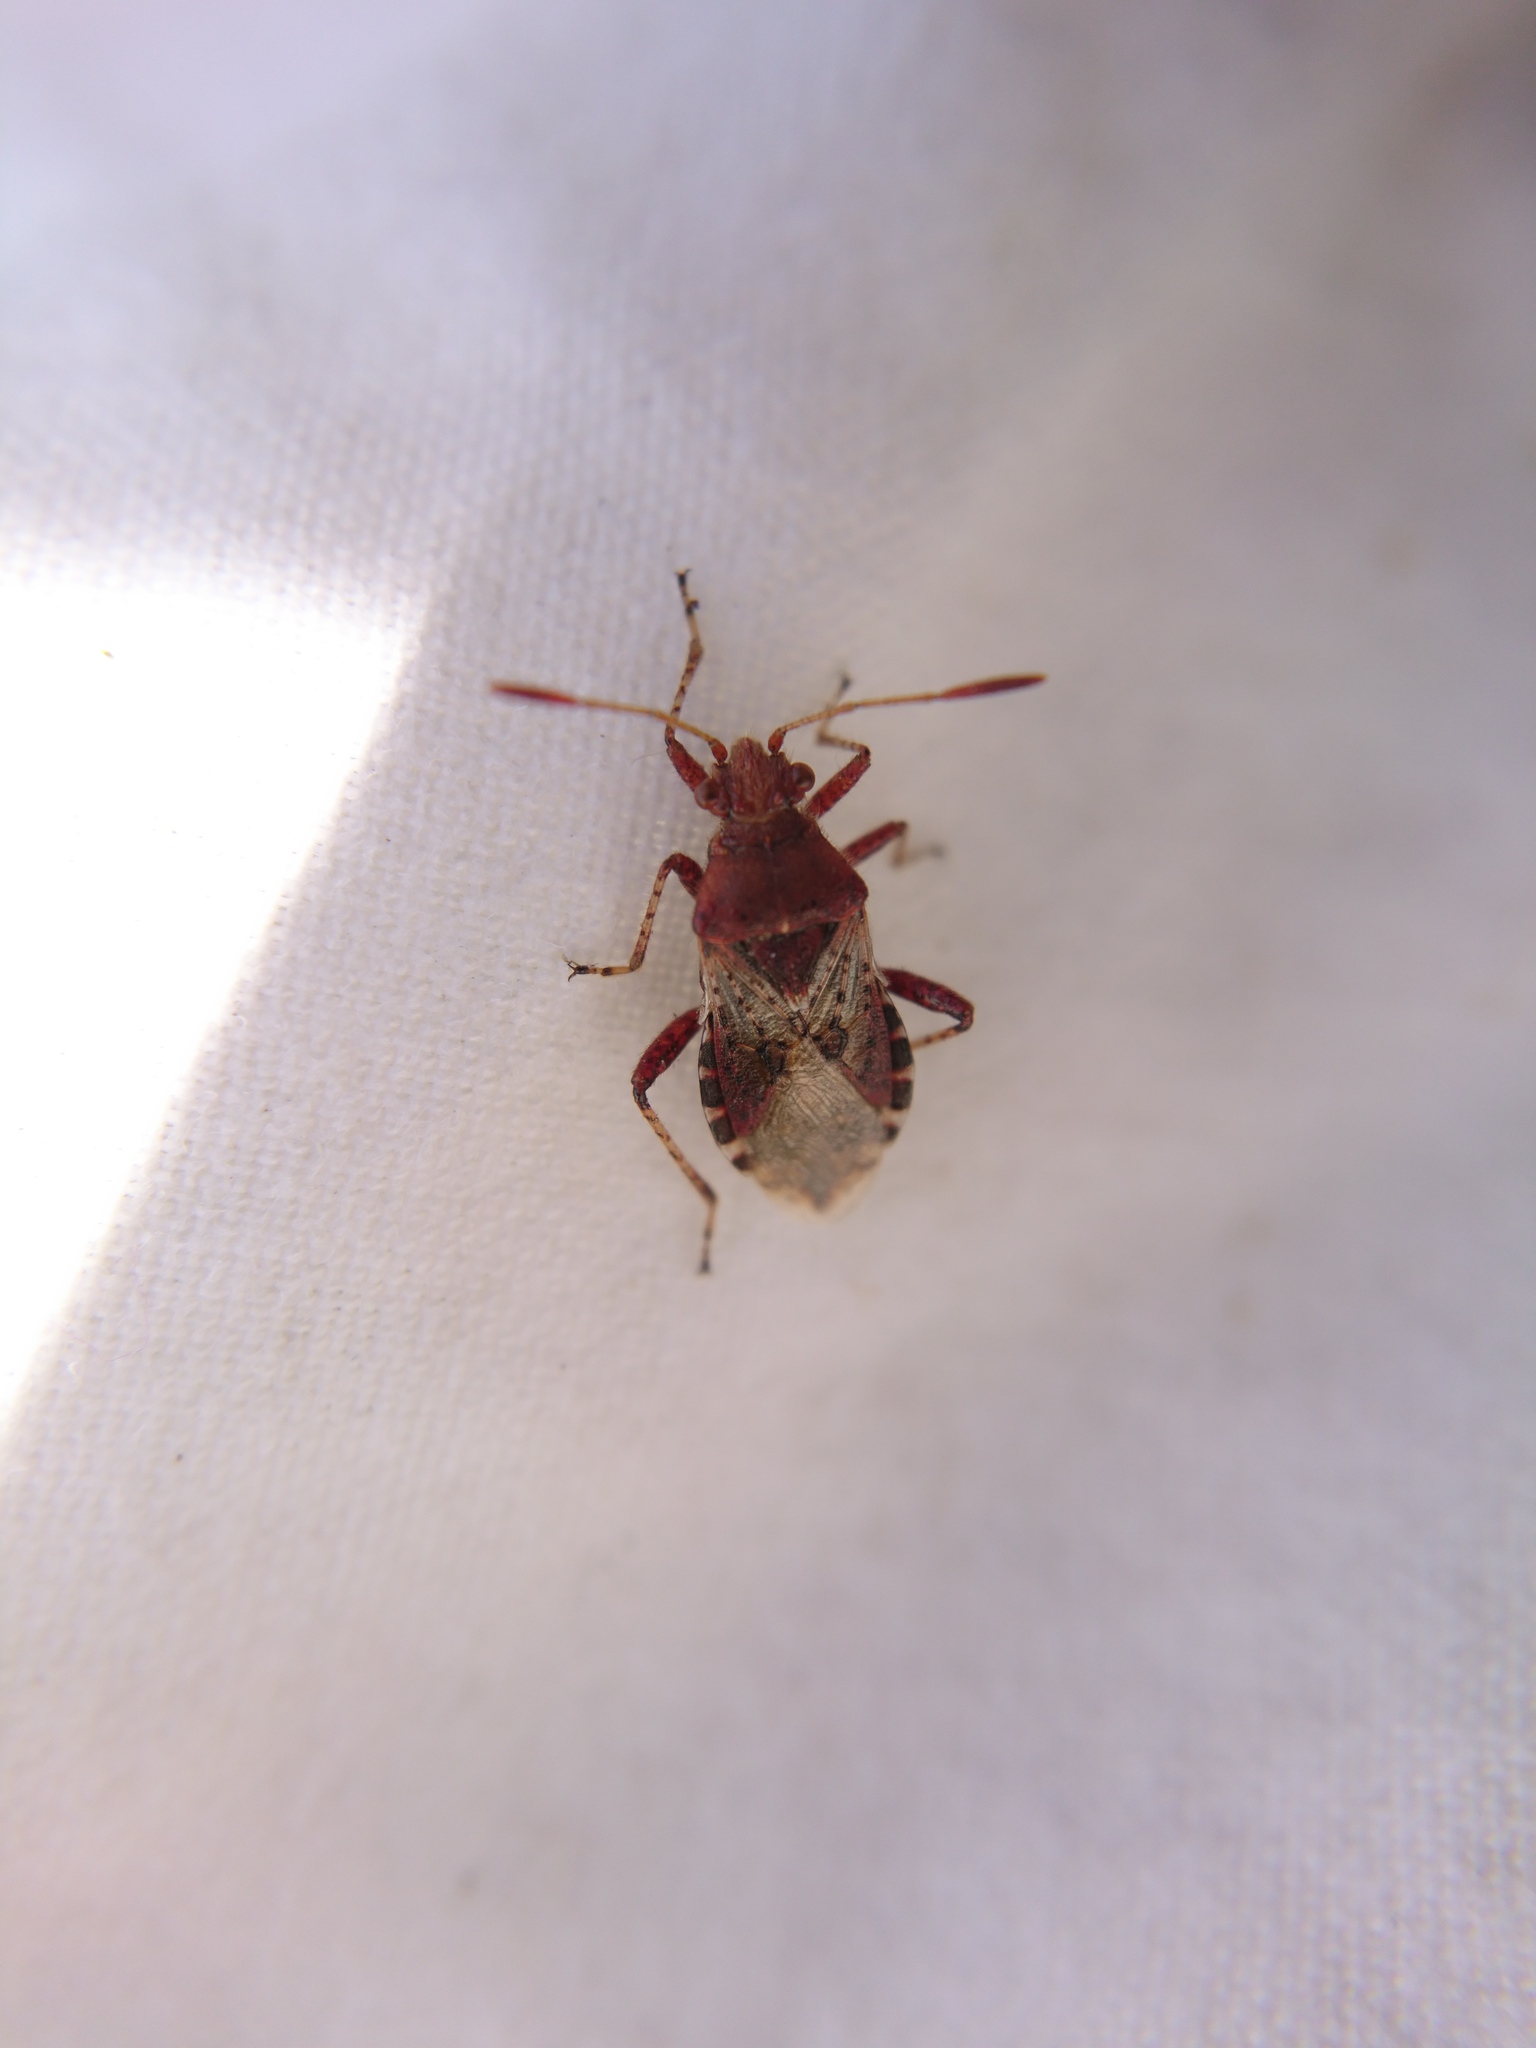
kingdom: Animalia
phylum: Arthropoda
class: Insecta
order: Hemiptera
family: Rhopalidae
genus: Rhopalus
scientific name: Rhopalus subrufus
